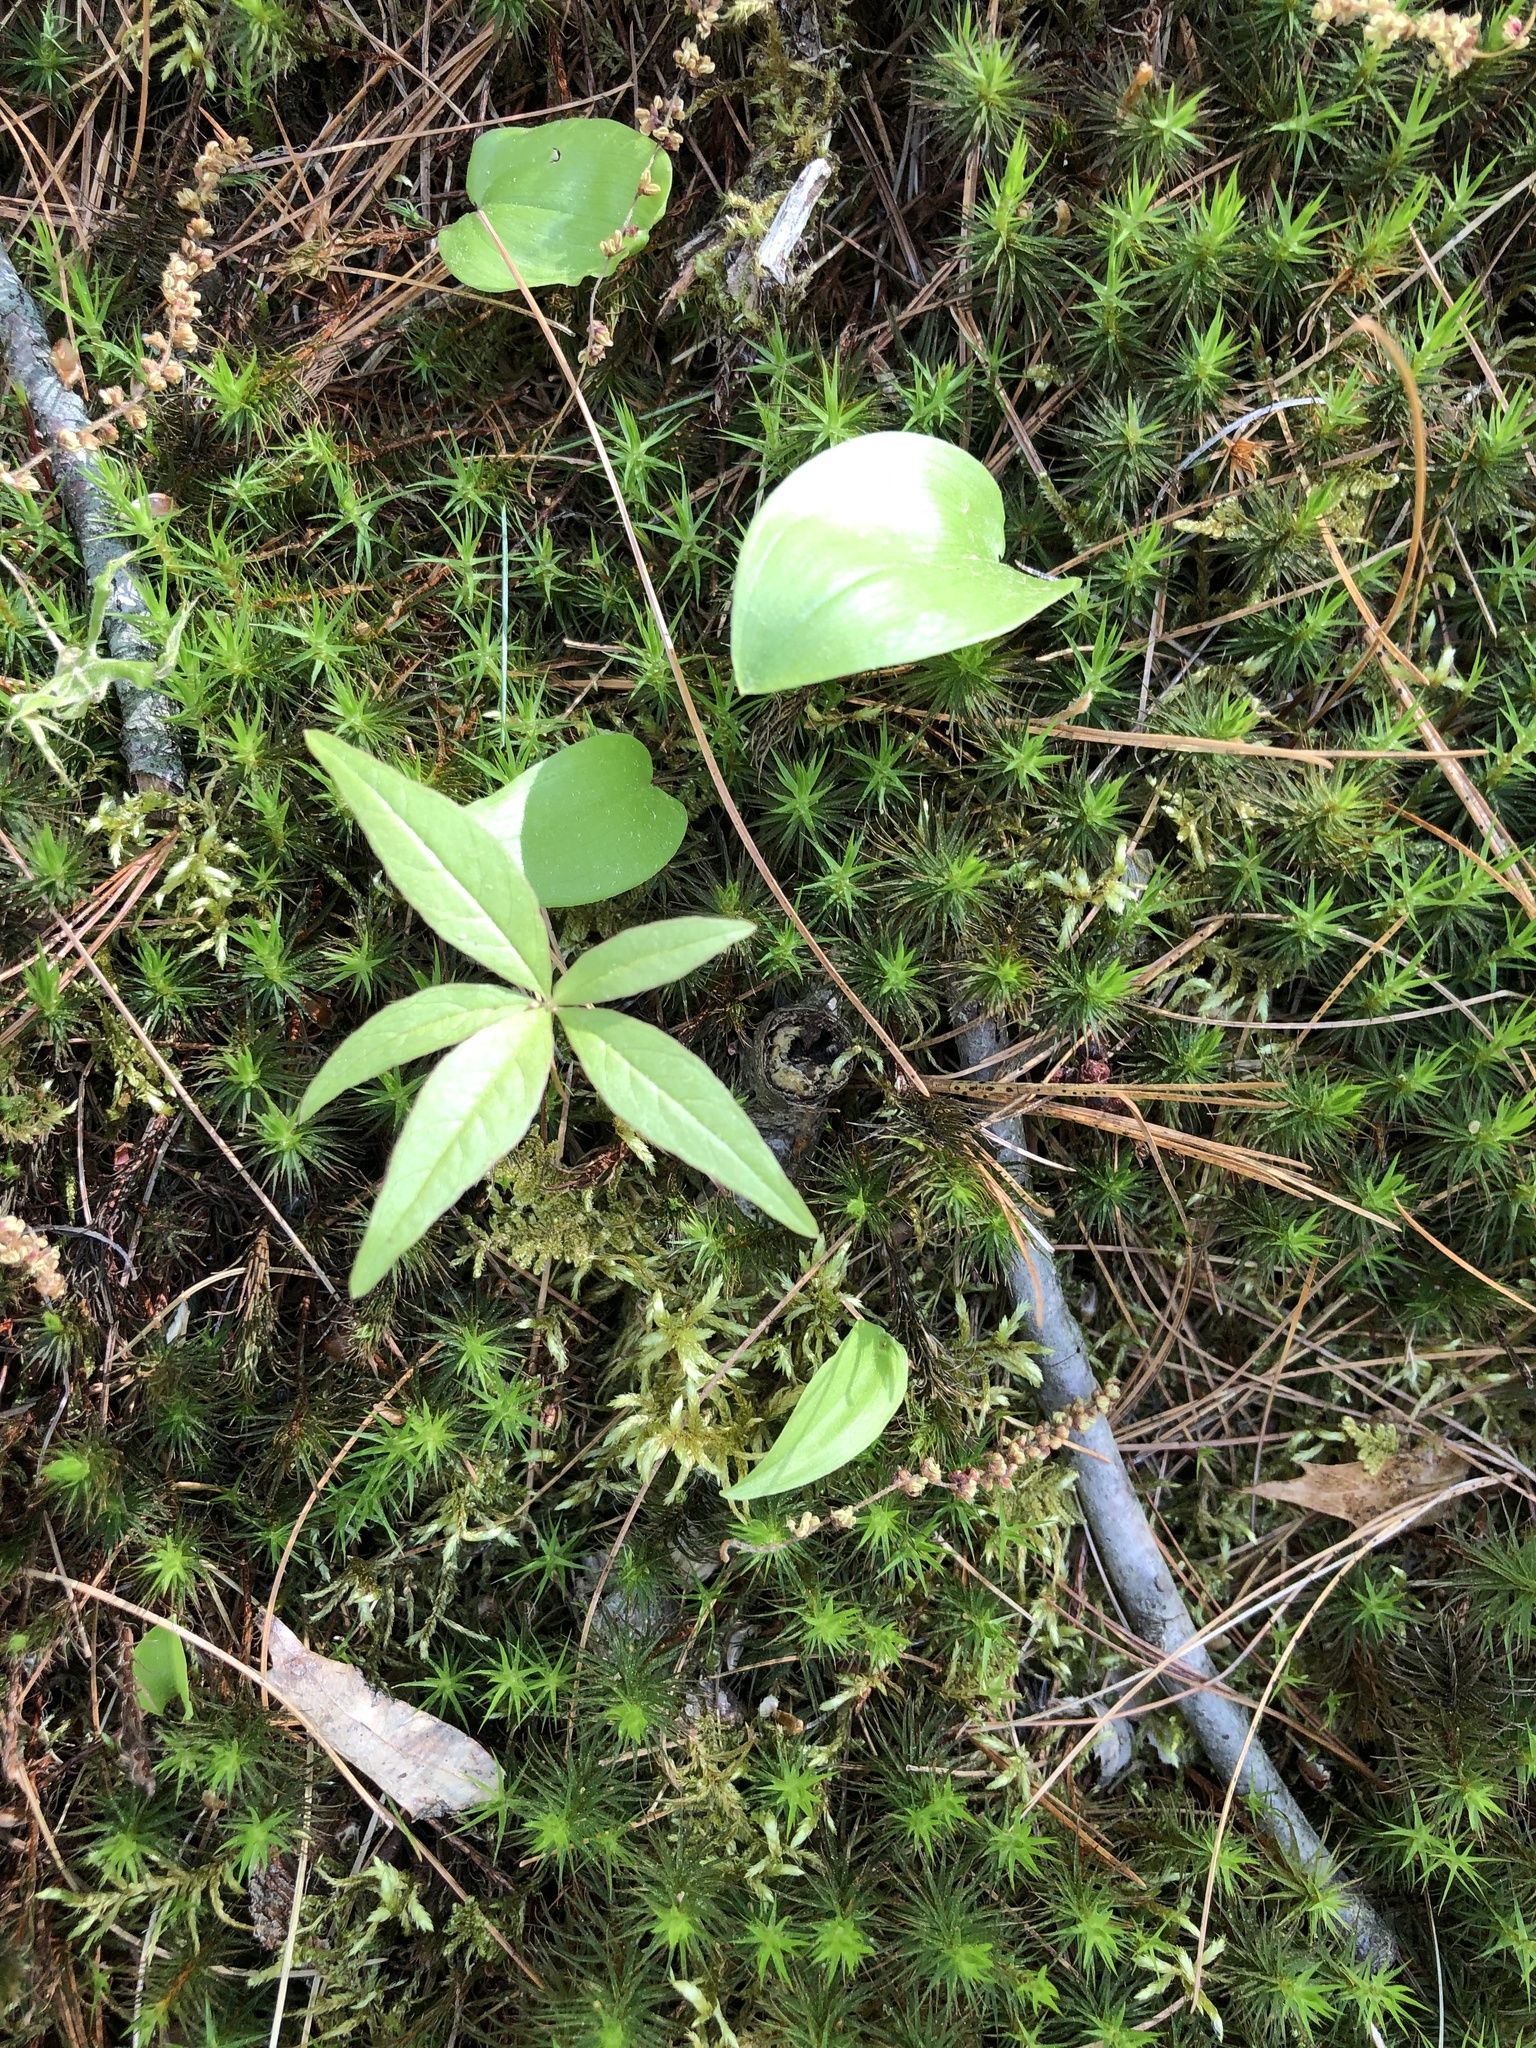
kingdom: Plantae
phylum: Tracheophyta
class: Magnoliopsida
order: Ericales
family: Primulaceae
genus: Lysimachia
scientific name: Lysimachia borealis
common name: American starflower
